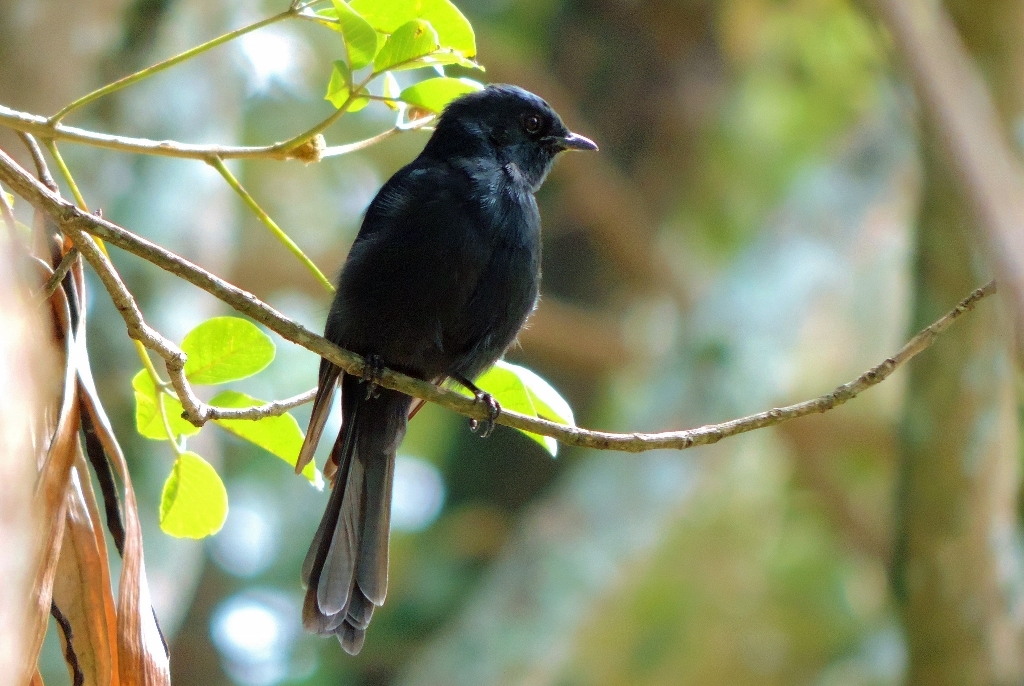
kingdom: Animalia
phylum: Chordata
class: Aves
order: Passeriformes
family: Muscicapidae
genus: Melaenornis
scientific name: Melaenornis pammelaina
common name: Southern black flycatcher
